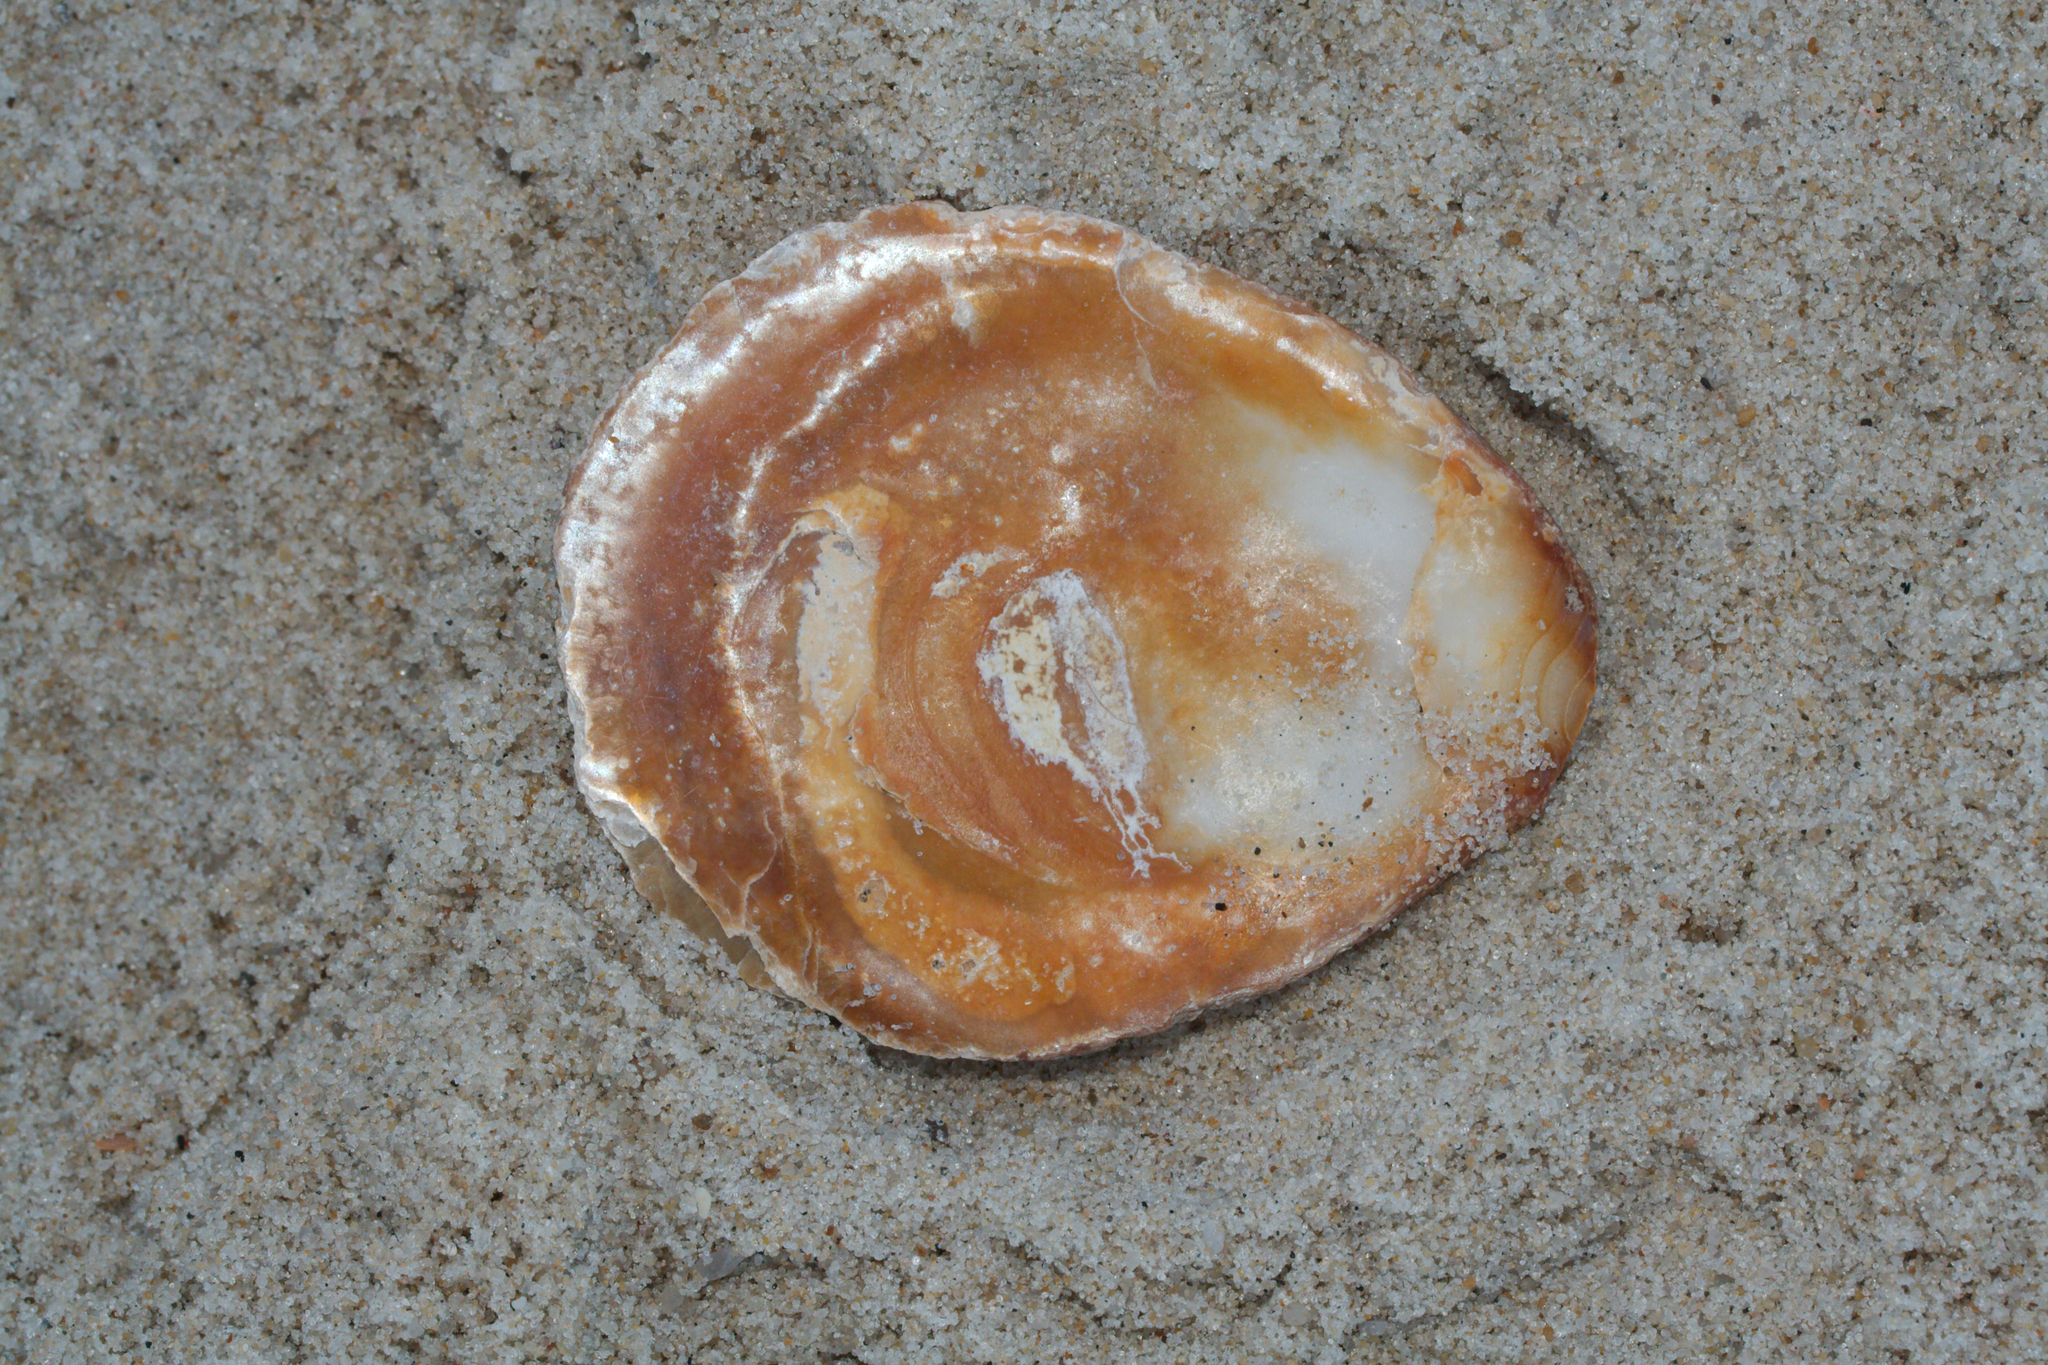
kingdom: Animalia
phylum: Mollusca
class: Bivalvia
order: Ostreida
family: Ostreidae
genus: Ostrea
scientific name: Ostrea edulis
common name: Flat oyster
